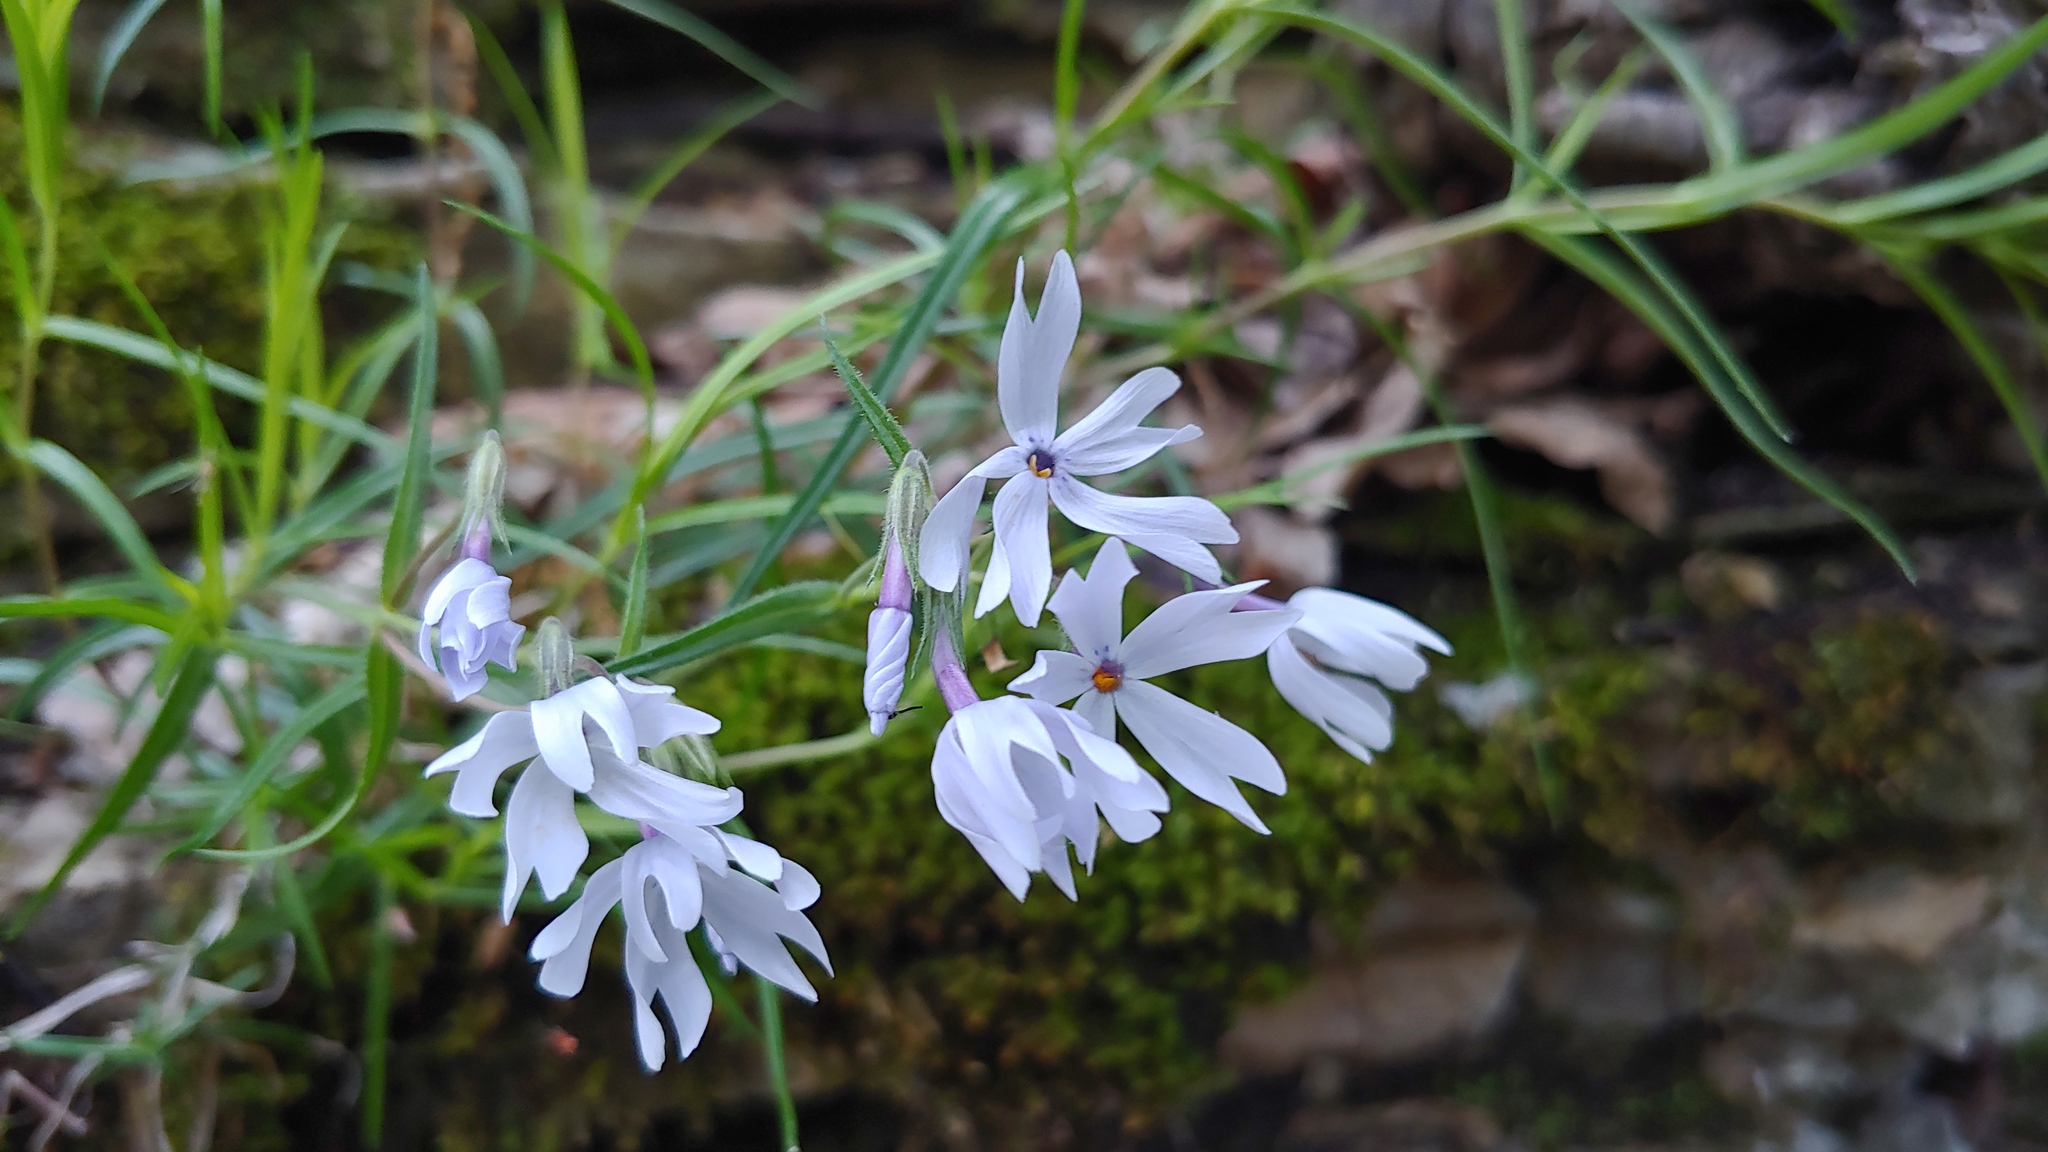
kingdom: Plantae
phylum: Tracheophyta
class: Magnoliopsida
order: Ericales
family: Polemoniaceae
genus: Phlox
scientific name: Phlox bifida
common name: Sand phlox
